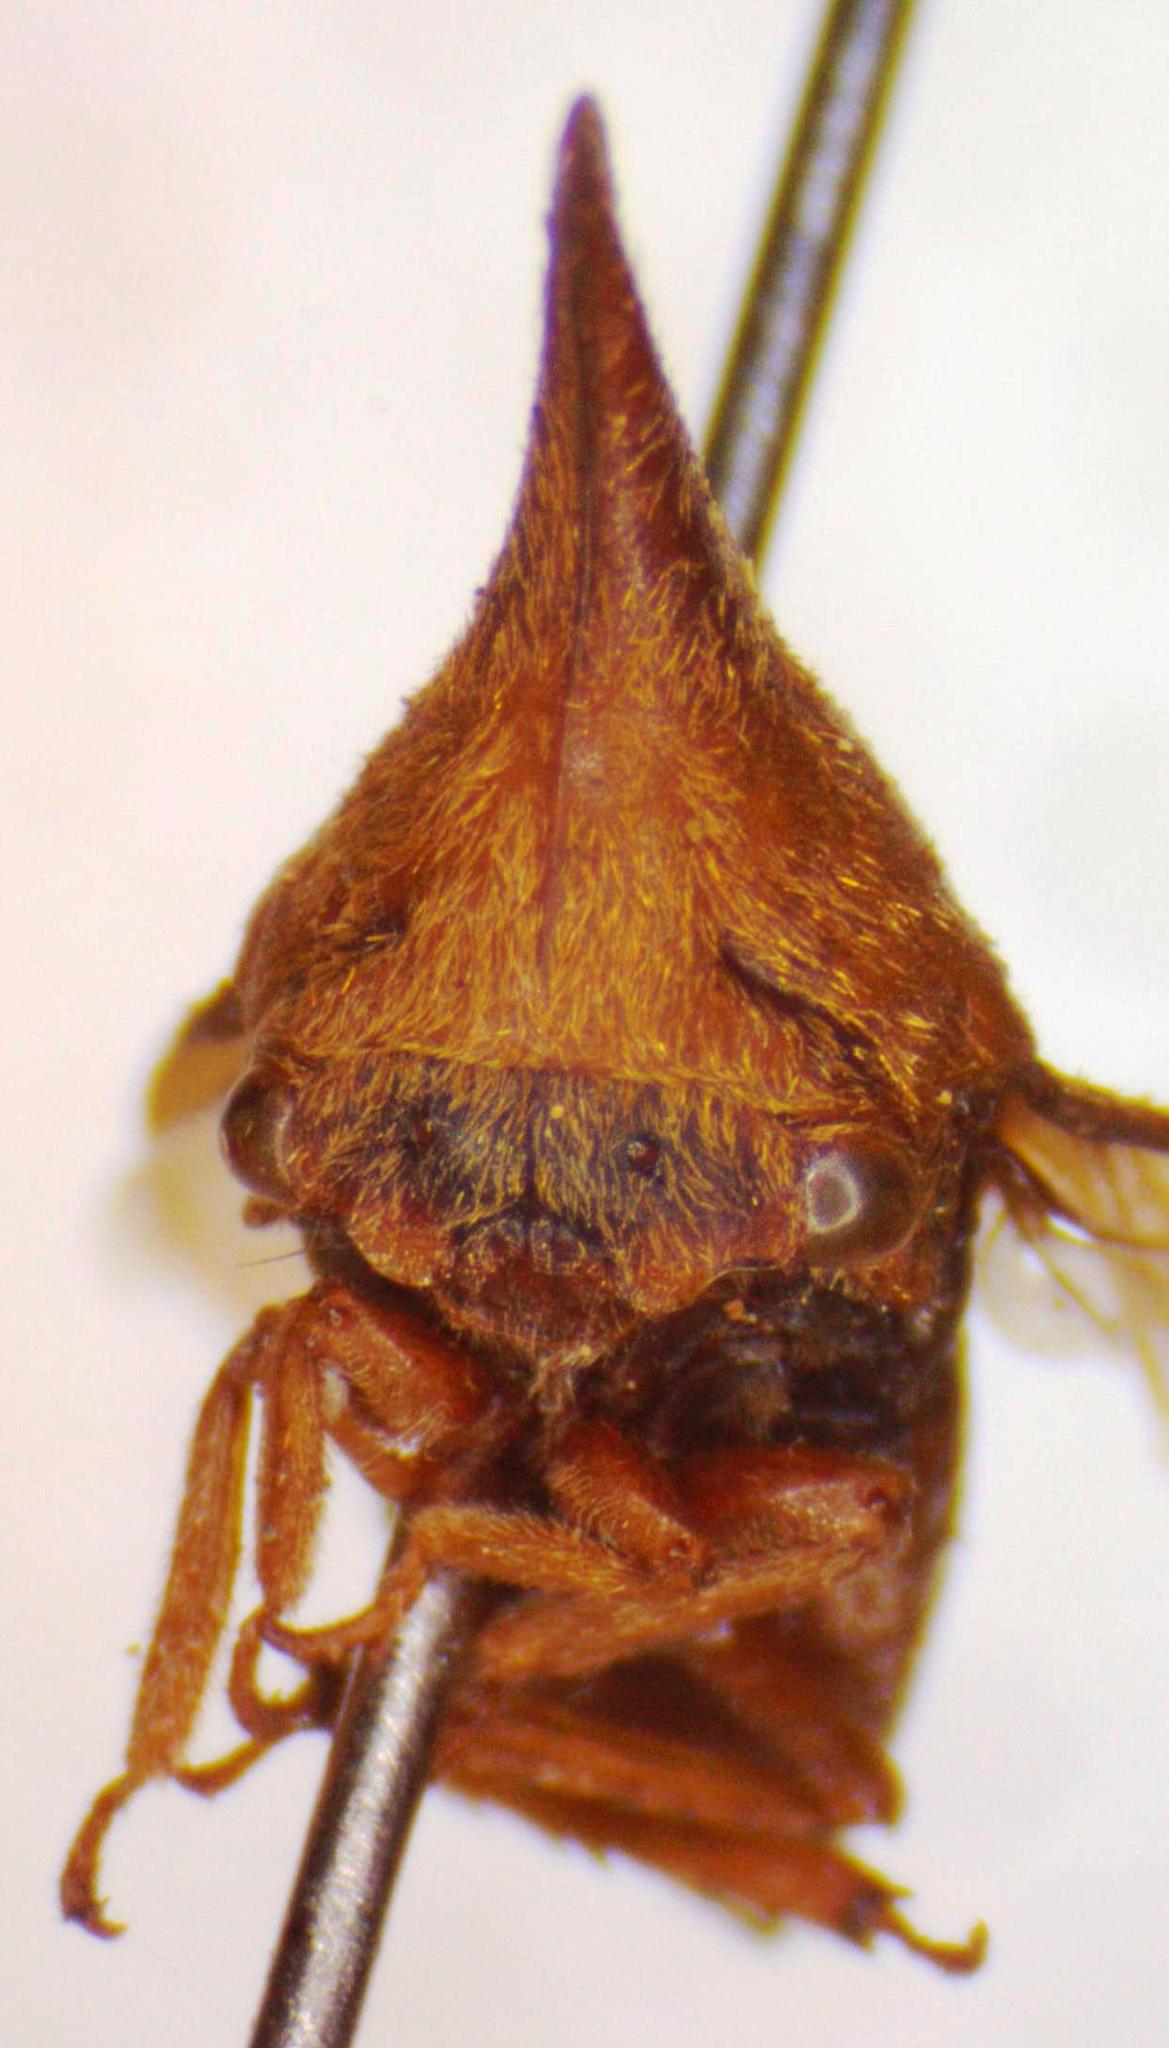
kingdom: Animalia
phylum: Arthropoda
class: Insecta
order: Hemiptera
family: Membracidae
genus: Guayaquila
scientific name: Guayaquila emarginata
